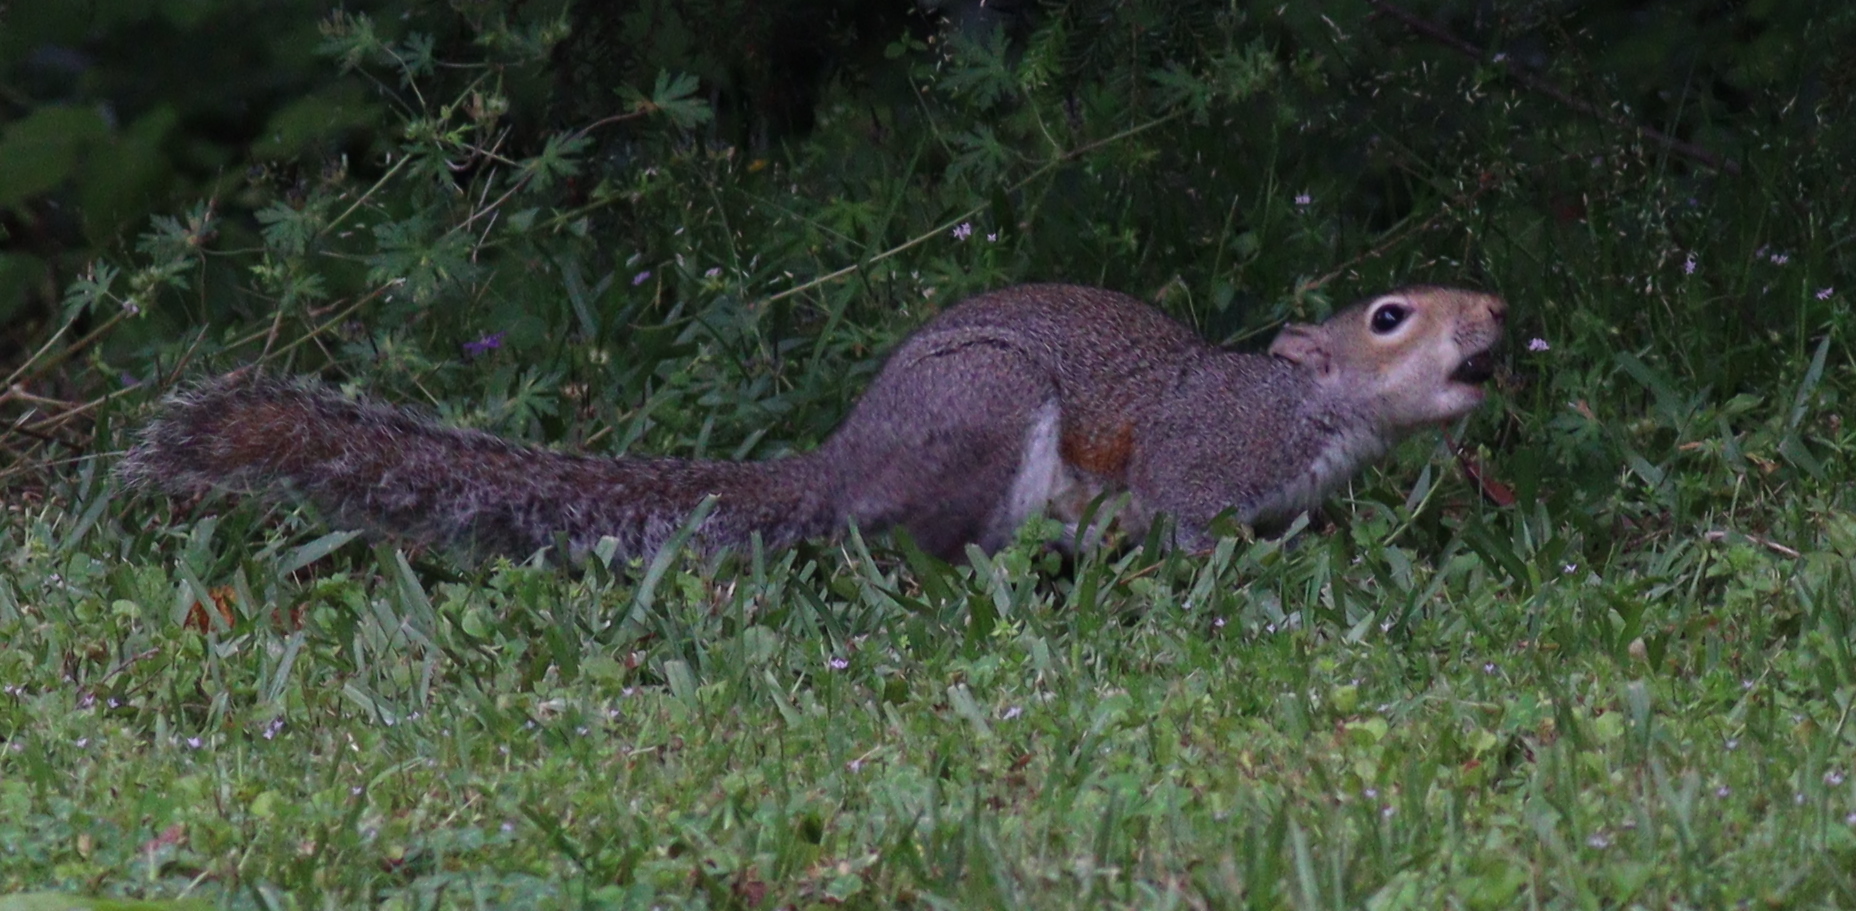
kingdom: Animalia
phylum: Chordata
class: Mammalia
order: Rodentia
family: Sciuridae
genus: Sciurus
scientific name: Sciurus carolinensis
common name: Eastern gray squirrel
